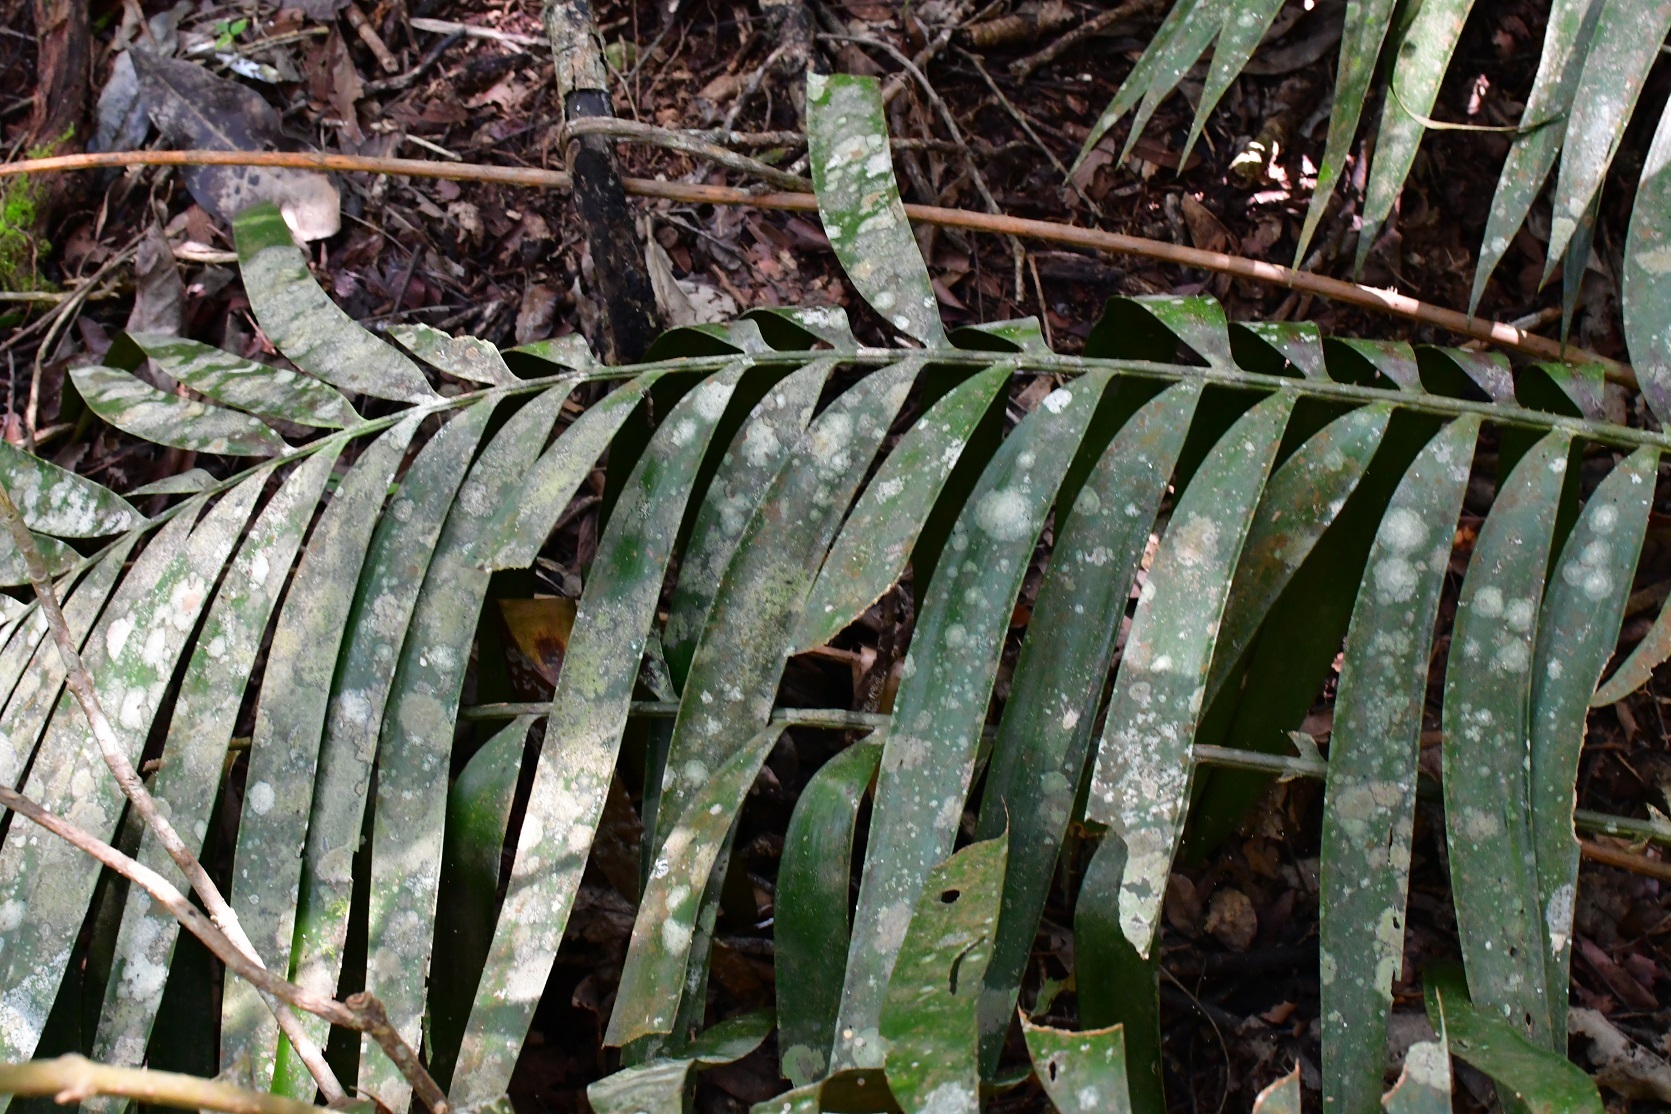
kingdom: Plantae
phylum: Tracheophyta
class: Cycadopsida
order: Cycadales
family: Zamiaceae
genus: Ceratozamia
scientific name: Ceratozamia robusta
